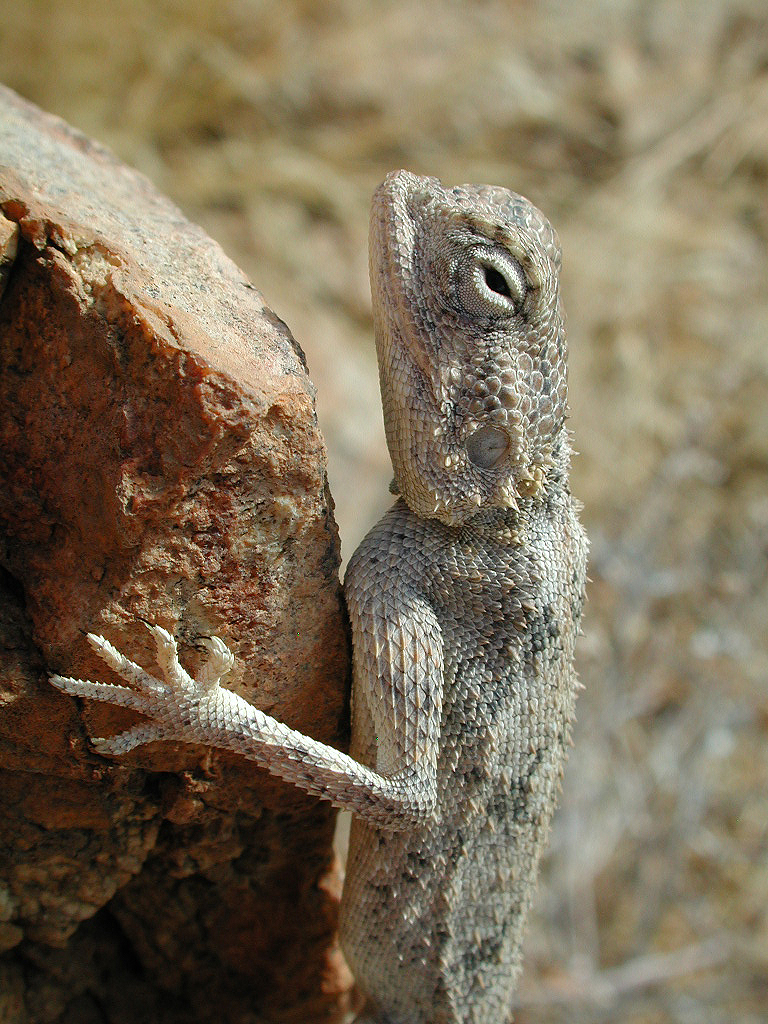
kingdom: Animalia
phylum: Chordata
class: Squamata
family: Agamidae
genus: Agama
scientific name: Agama anchietae
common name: Anchieta's agama
